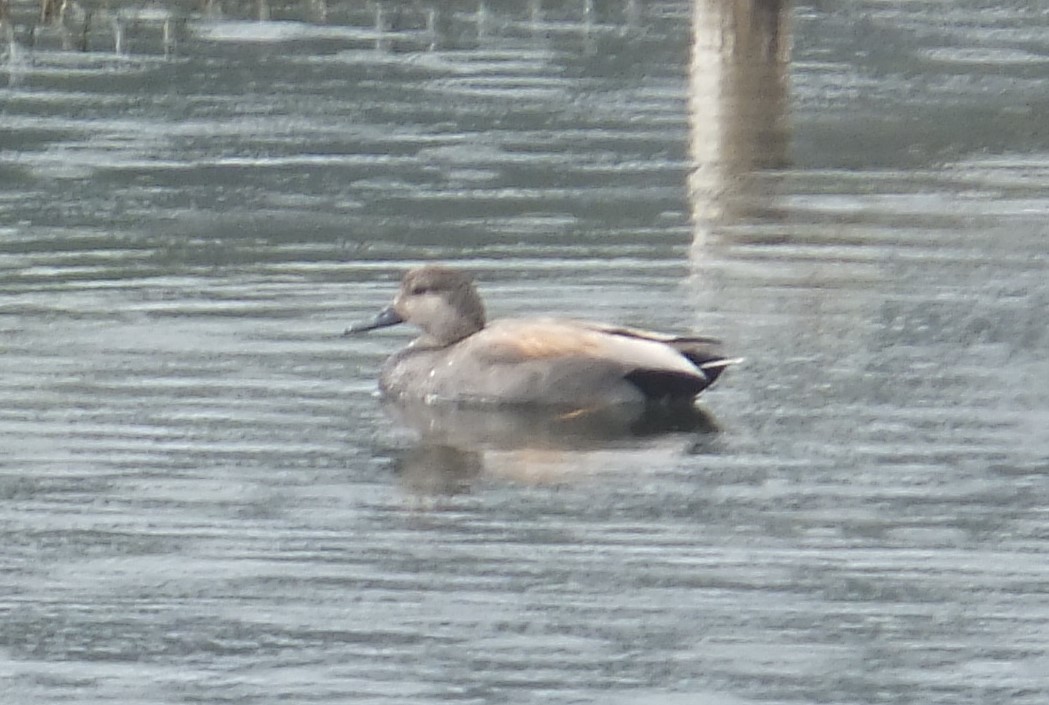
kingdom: Animalia
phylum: Chordata
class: Aves
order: Anseriformes
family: Anatidae
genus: Mareca
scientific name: Mareca strepera
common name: Gadwall
